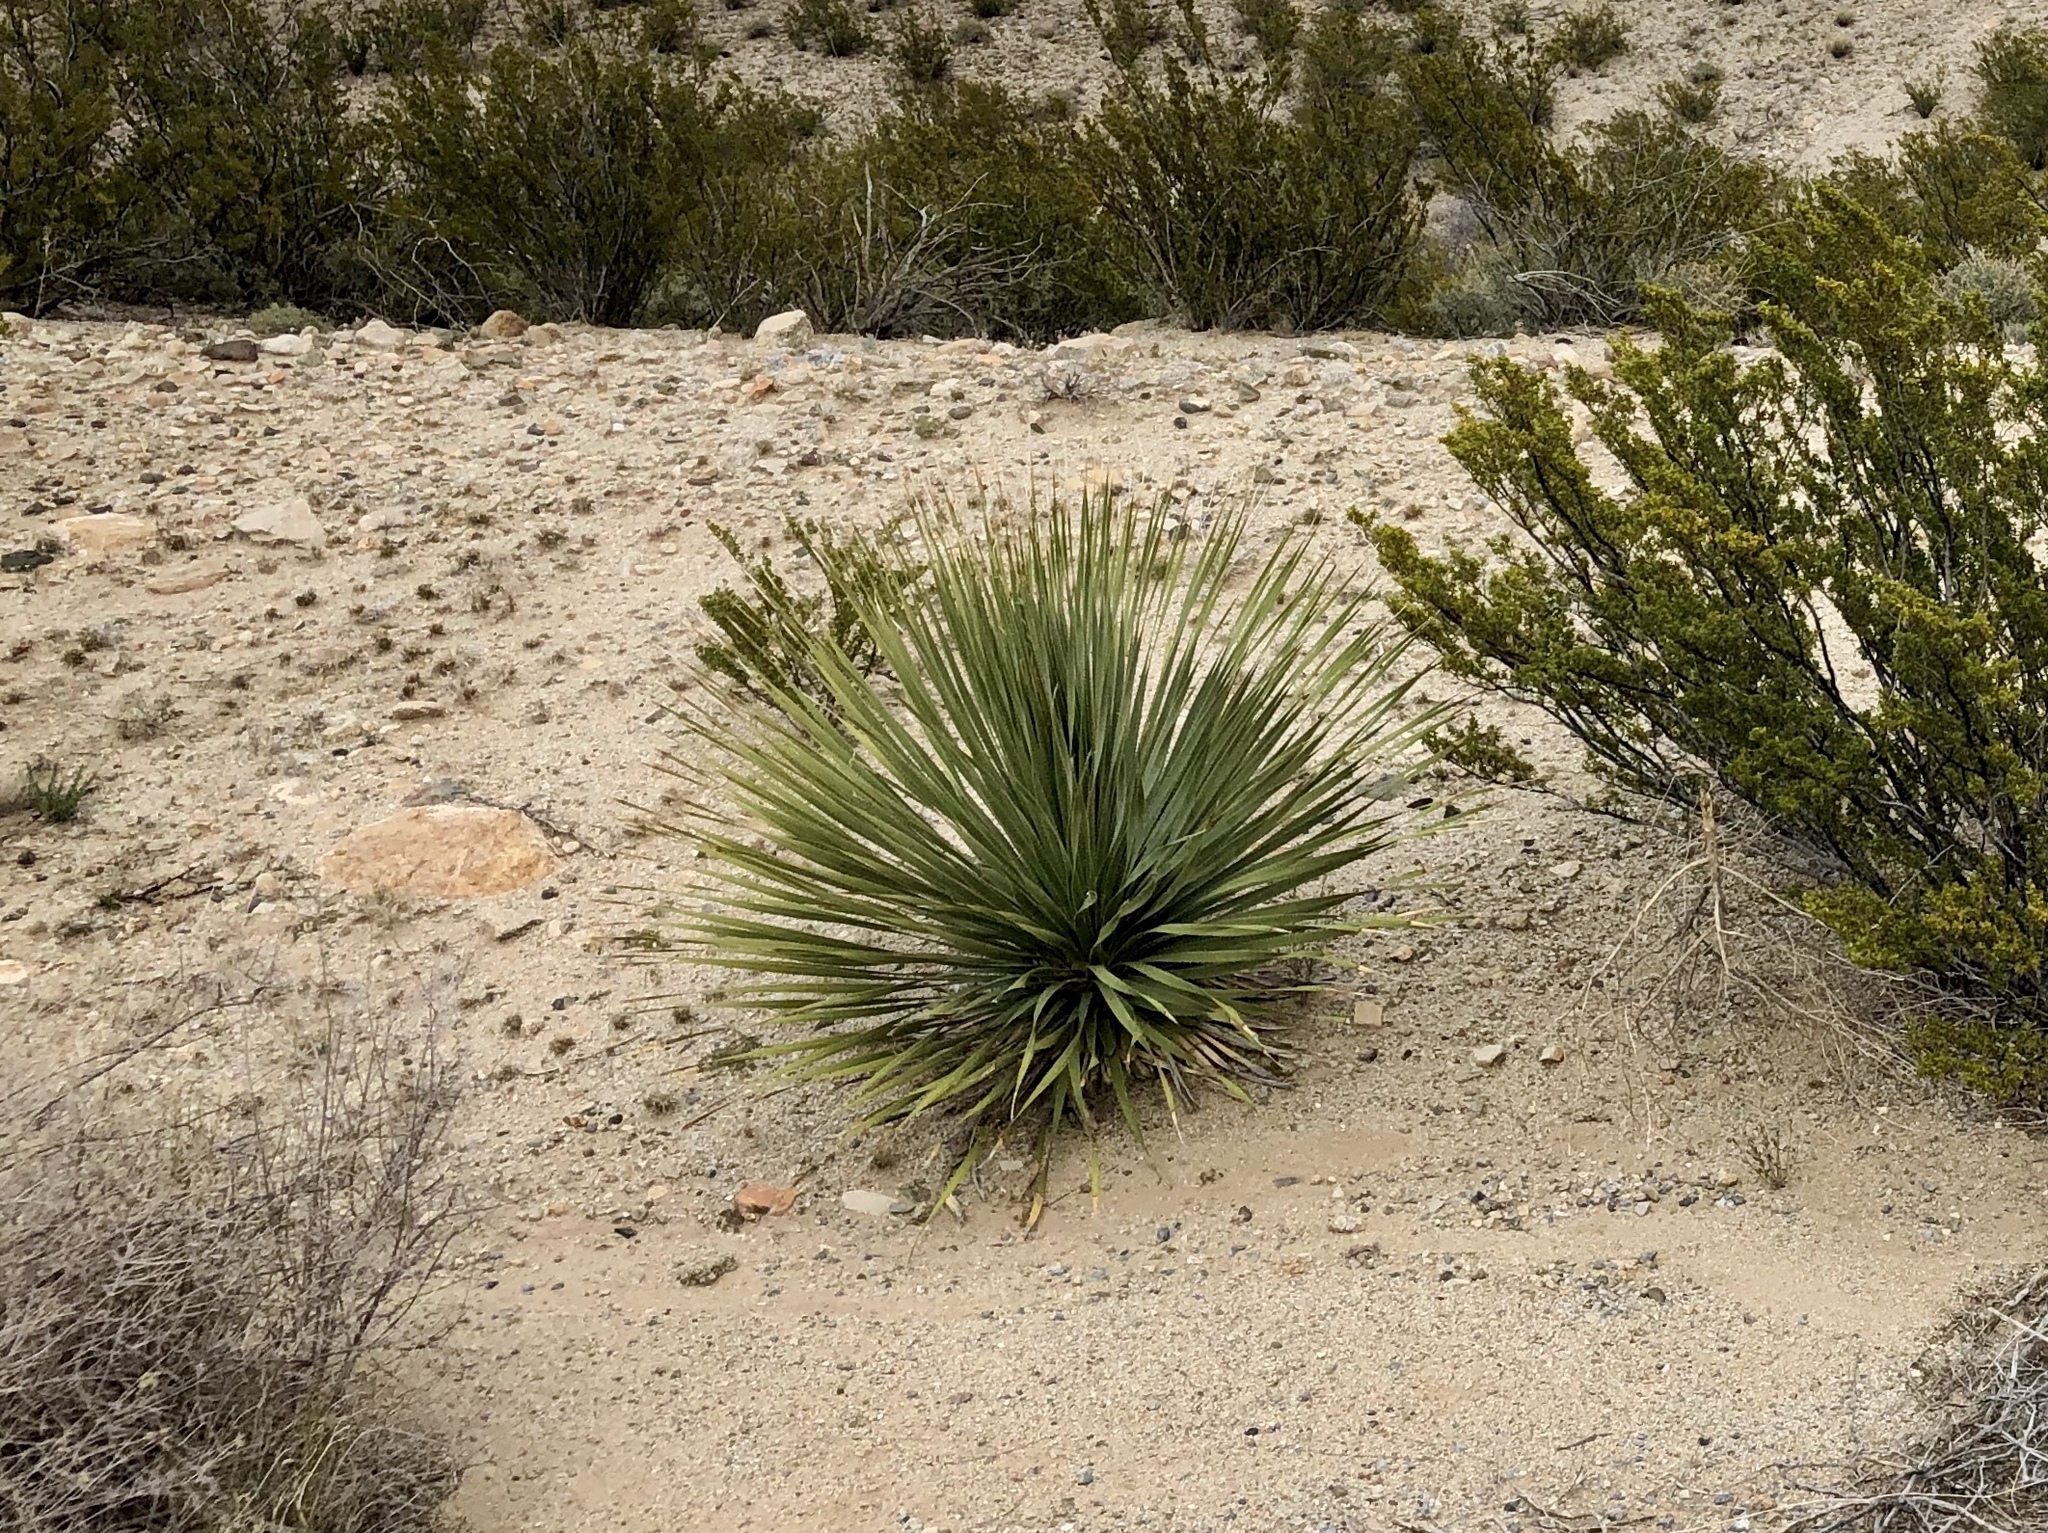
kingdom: Plantae
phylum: Tracheophyta
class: Liliopsida
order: Asparagales
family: Asparagaceae
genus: Yucca
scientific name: Yucca elata
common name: Palmella
